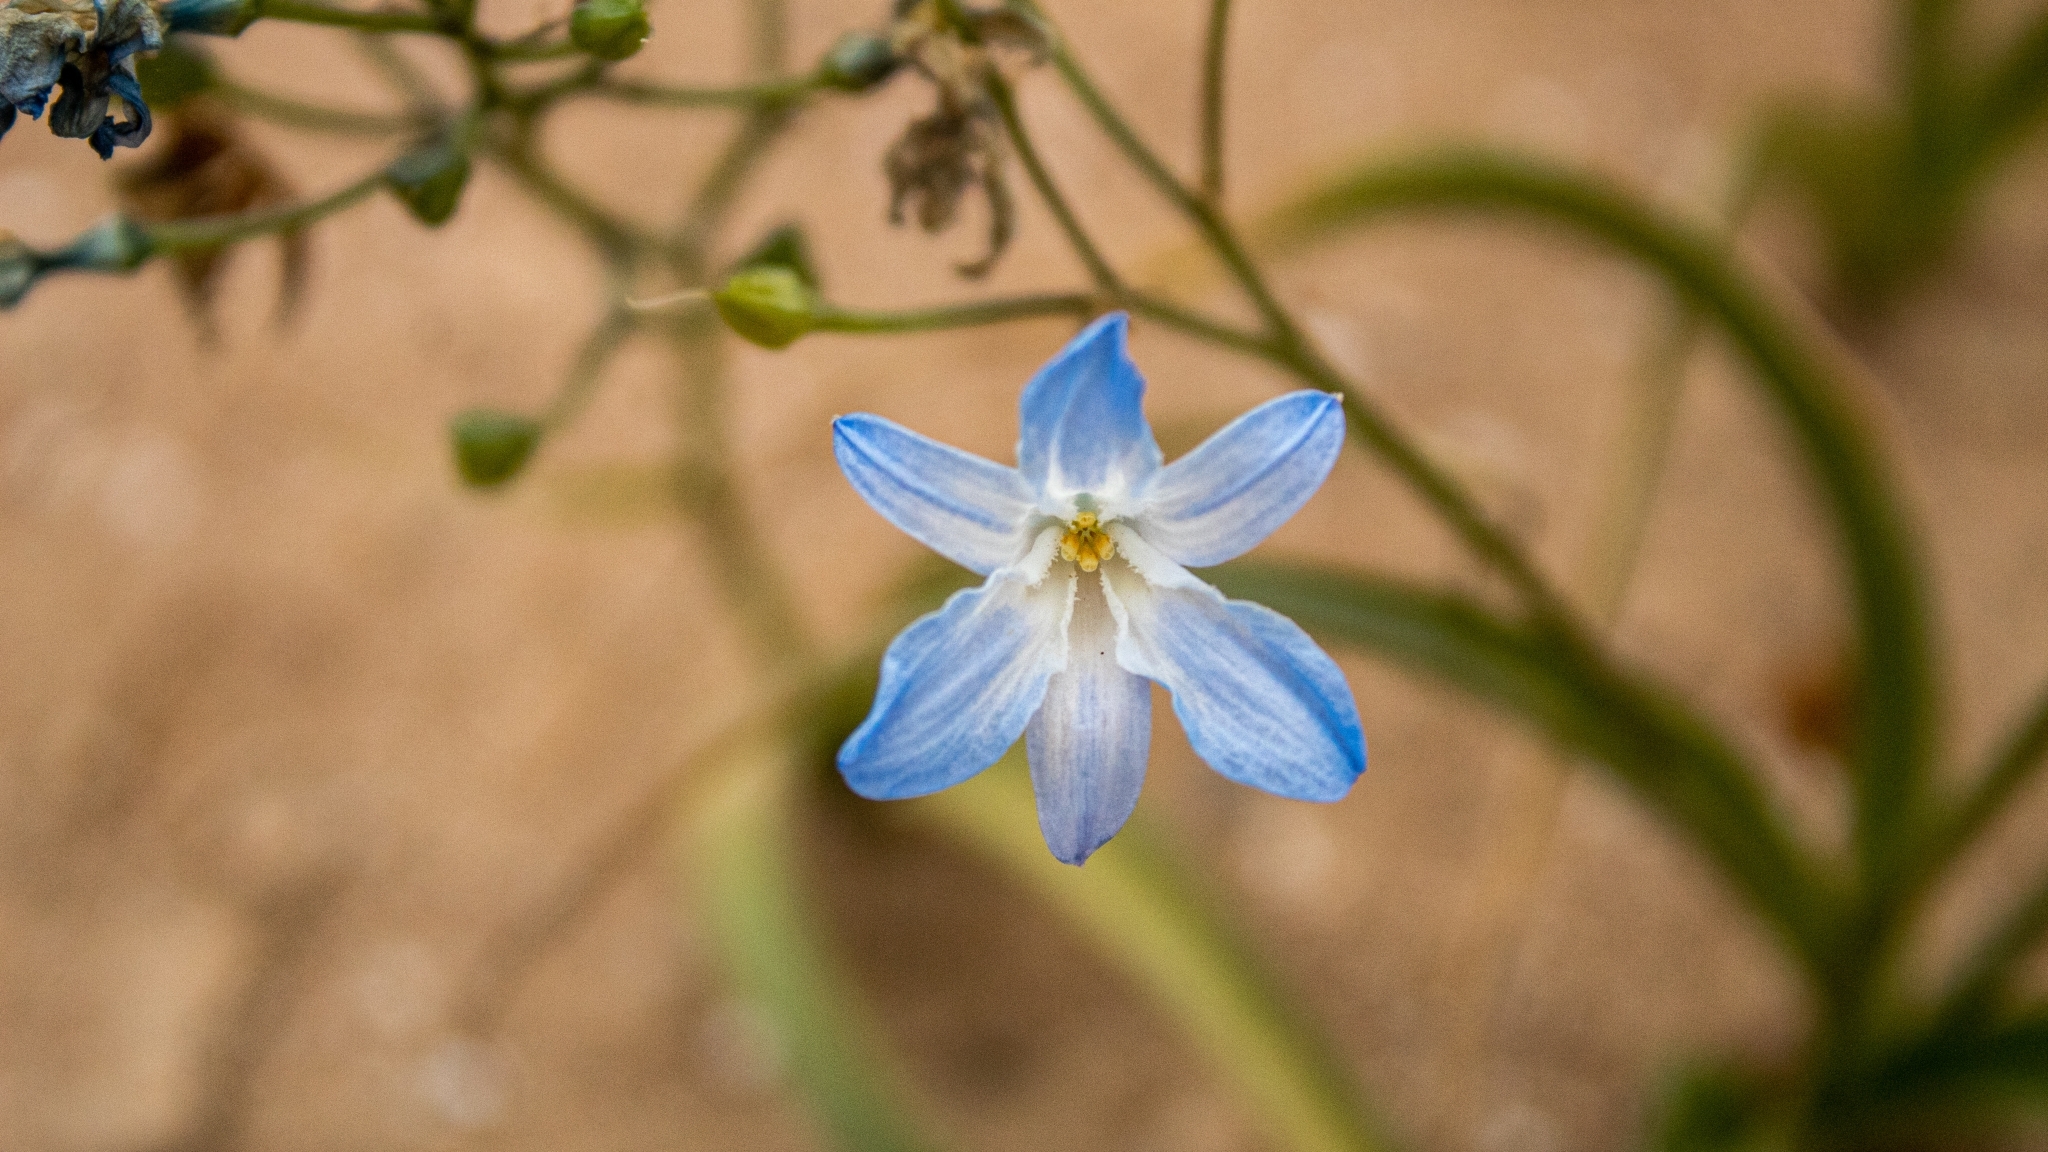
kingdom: Plantae
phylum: Tracheophyta
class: Liliopsida
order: Asparagales
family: Tecophilaeaceae
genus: Zephyra
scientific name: Zephyra elegans
